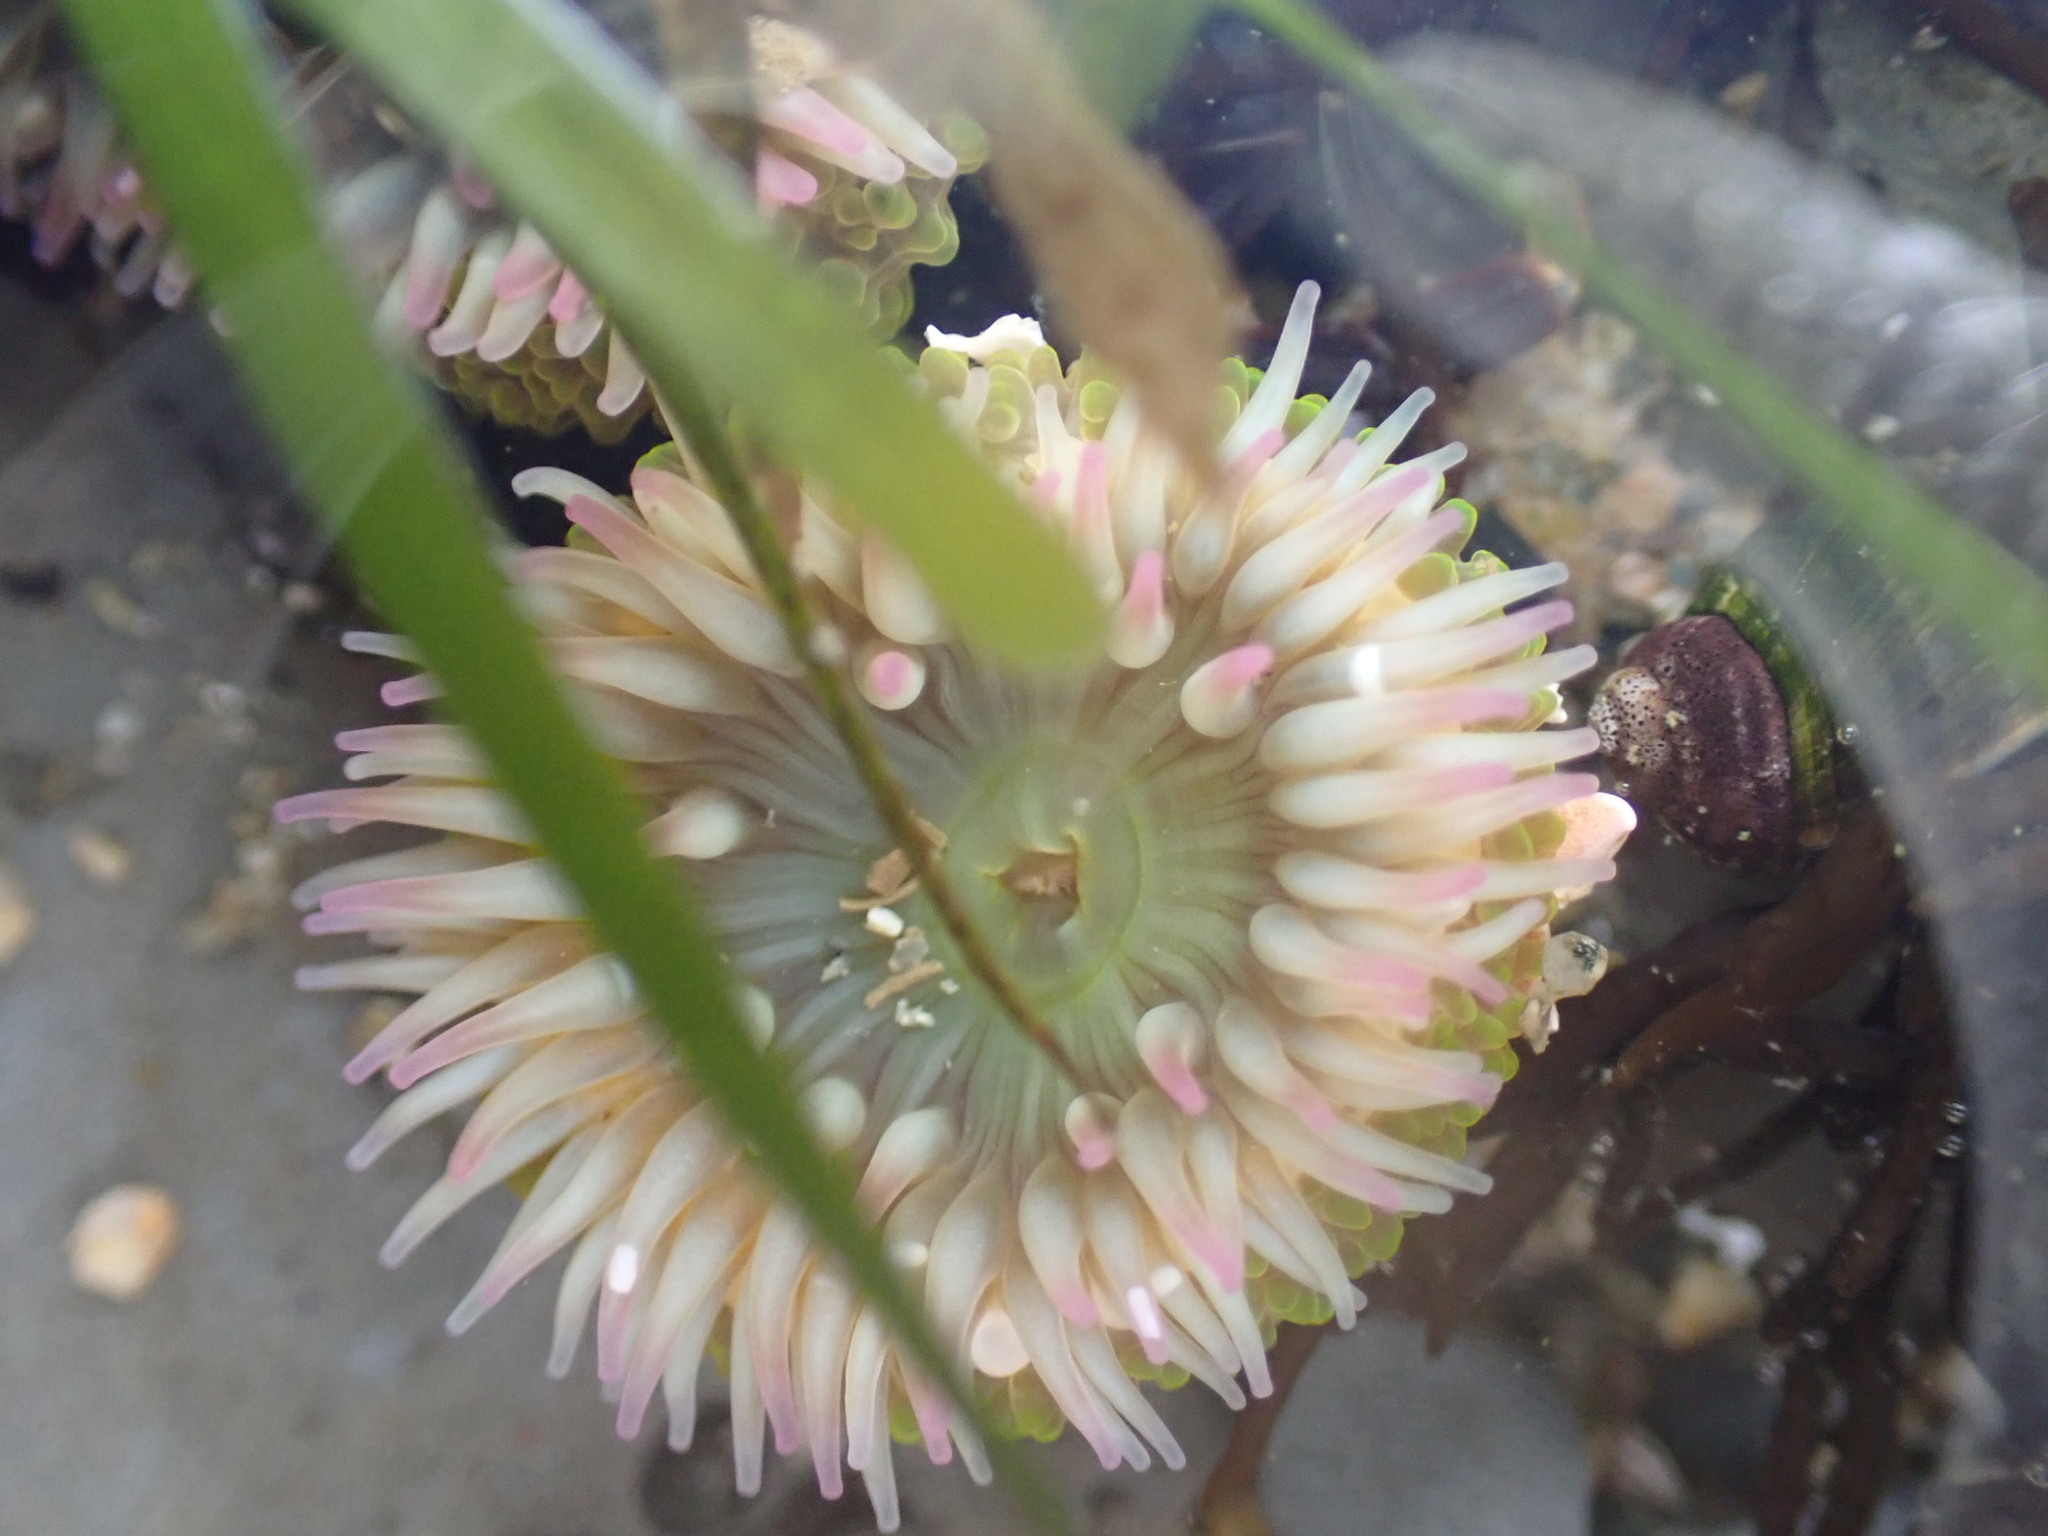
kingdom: Animalia
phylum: Cnidaria
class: Anthozoa
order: Actiniaria
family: Actiniidae
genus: Anthopleura
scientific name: Anthopleura elegantissima
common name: Clonal anemone
